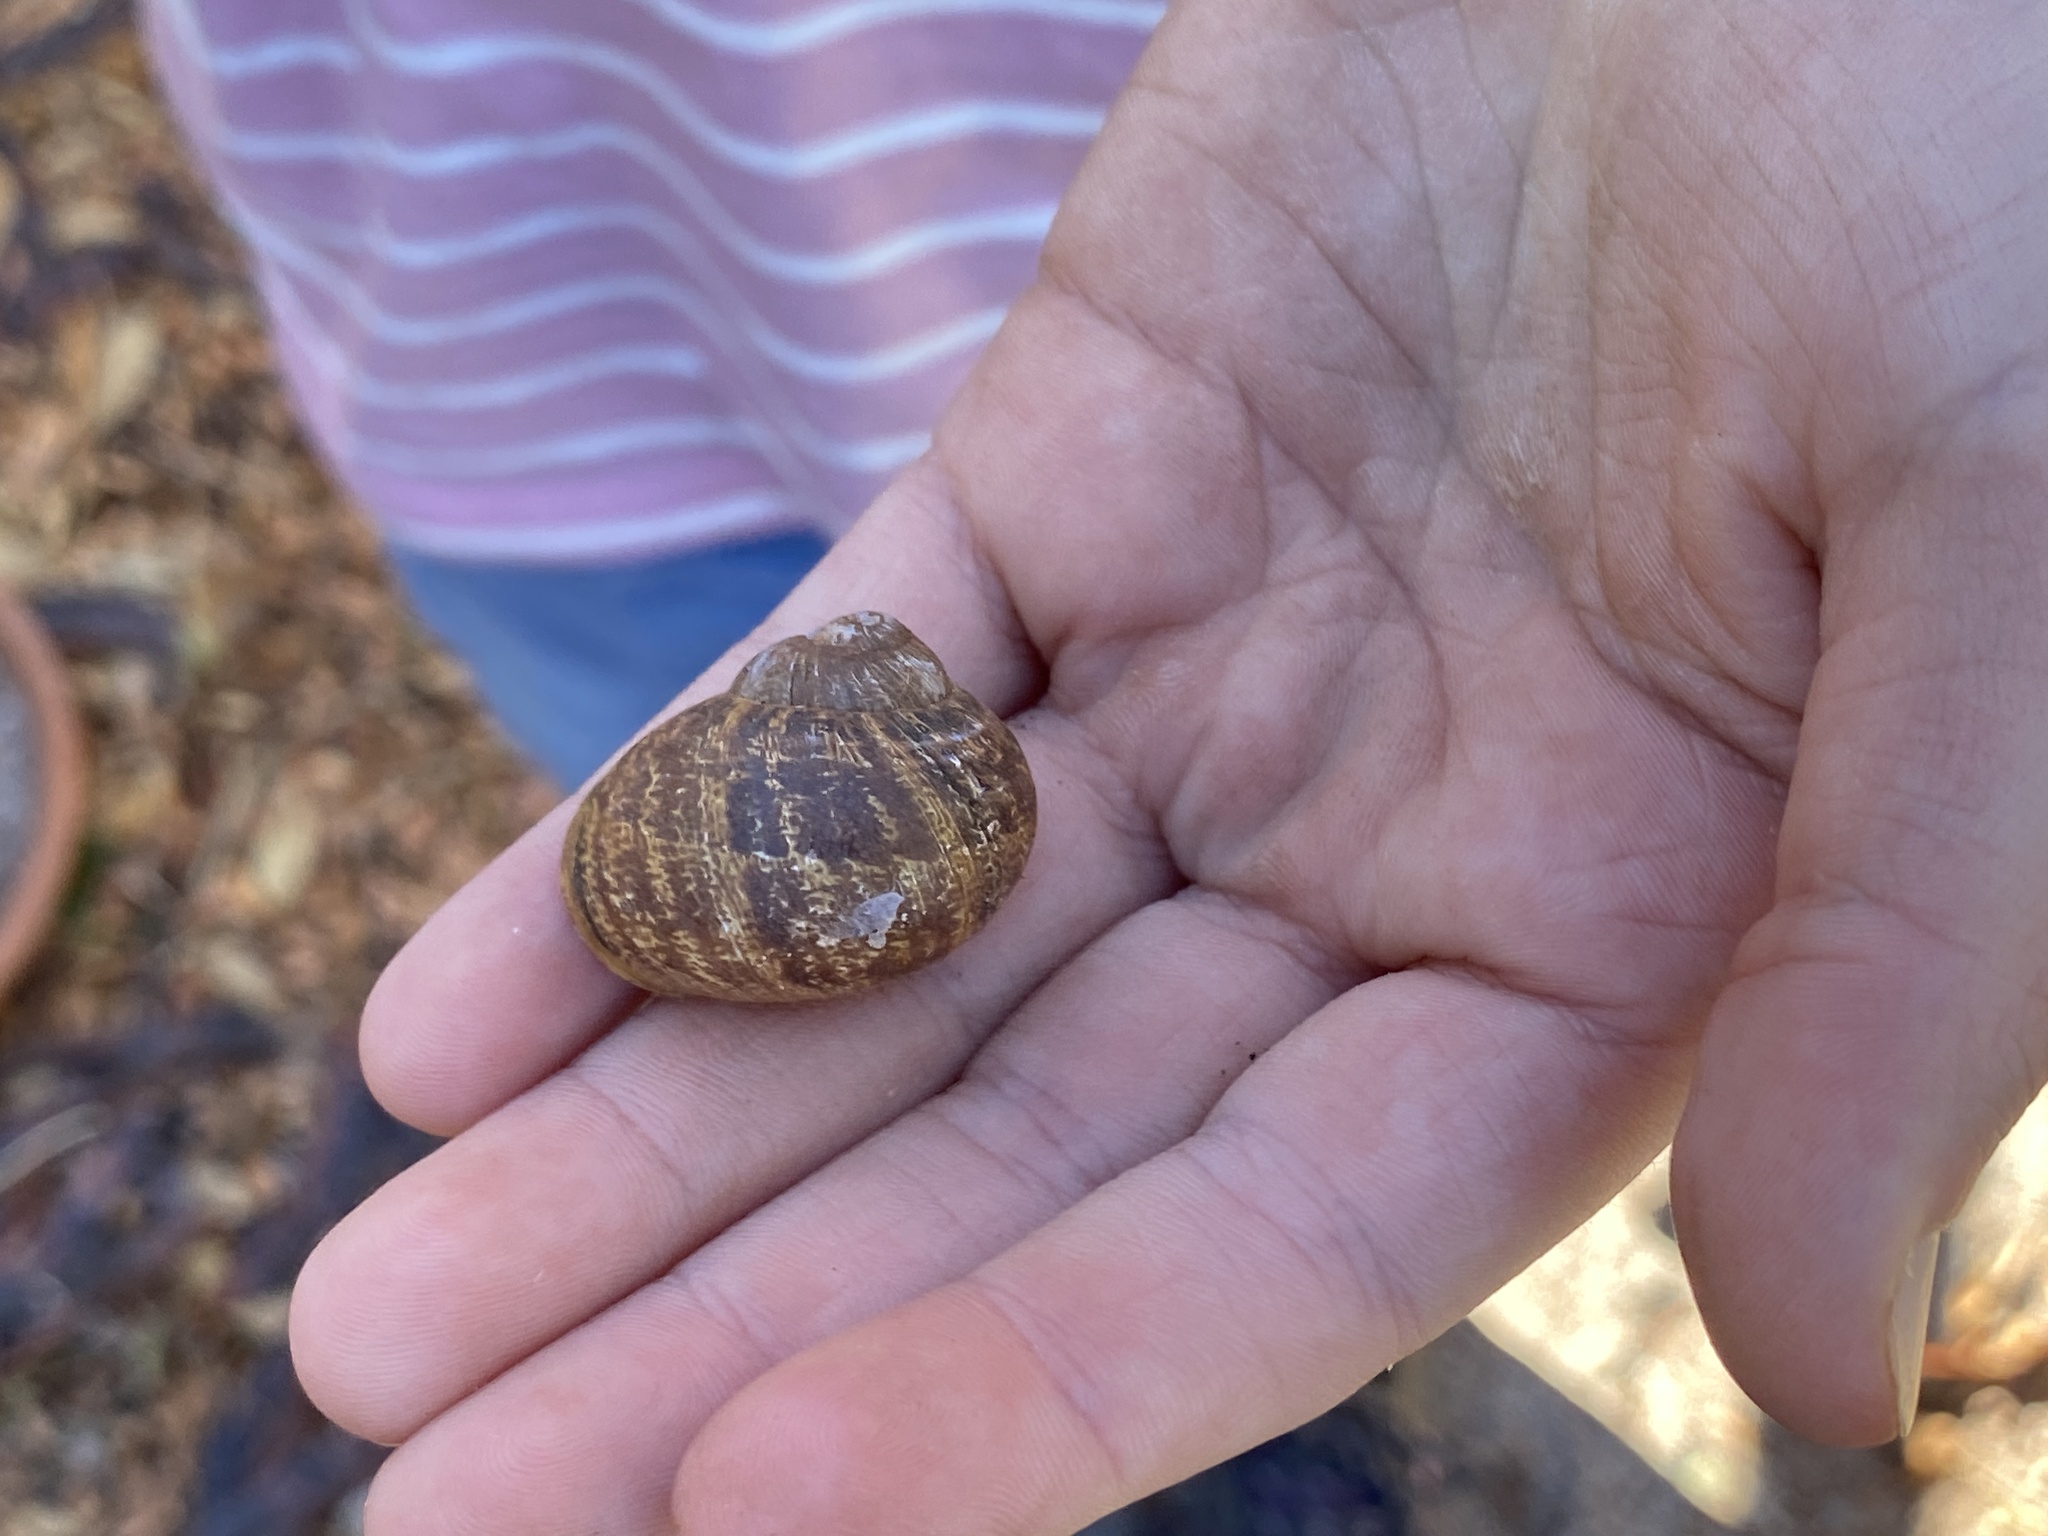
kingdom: Animalia
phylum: Mollusca
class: Gastropoda
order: Stylommatophora
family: Helicidae
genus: Cornu
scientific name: Cornu aspersum
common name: Brown garden snail
